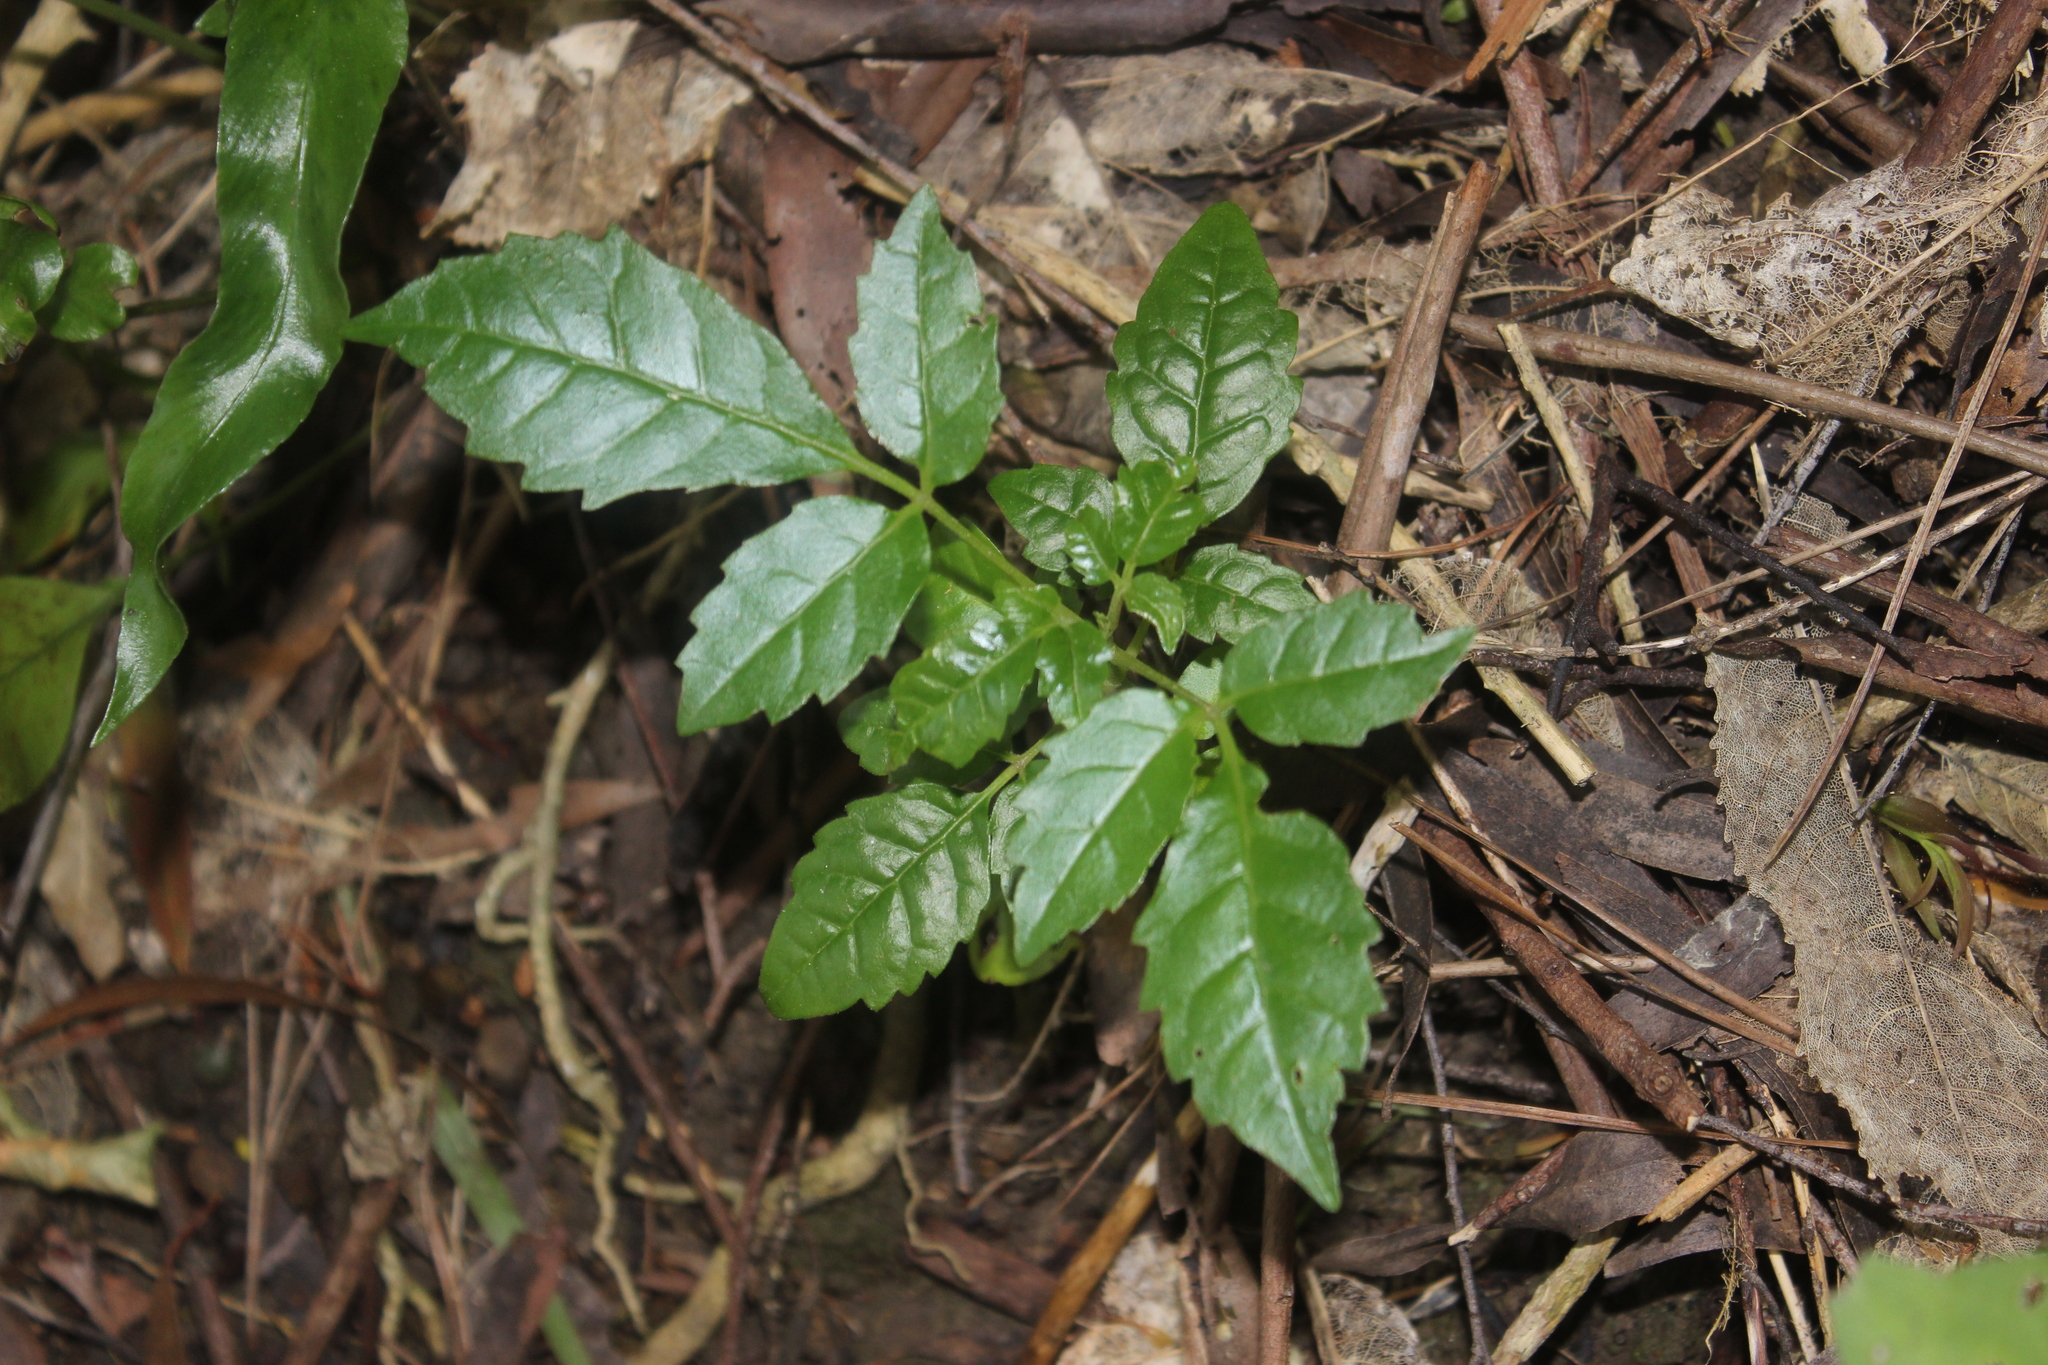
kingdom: Plantae
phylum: Tracheophyta
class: Magnoliopsida
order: Lamiales
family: Lamiaceae
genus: Vitex
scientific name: Vitex lucens
